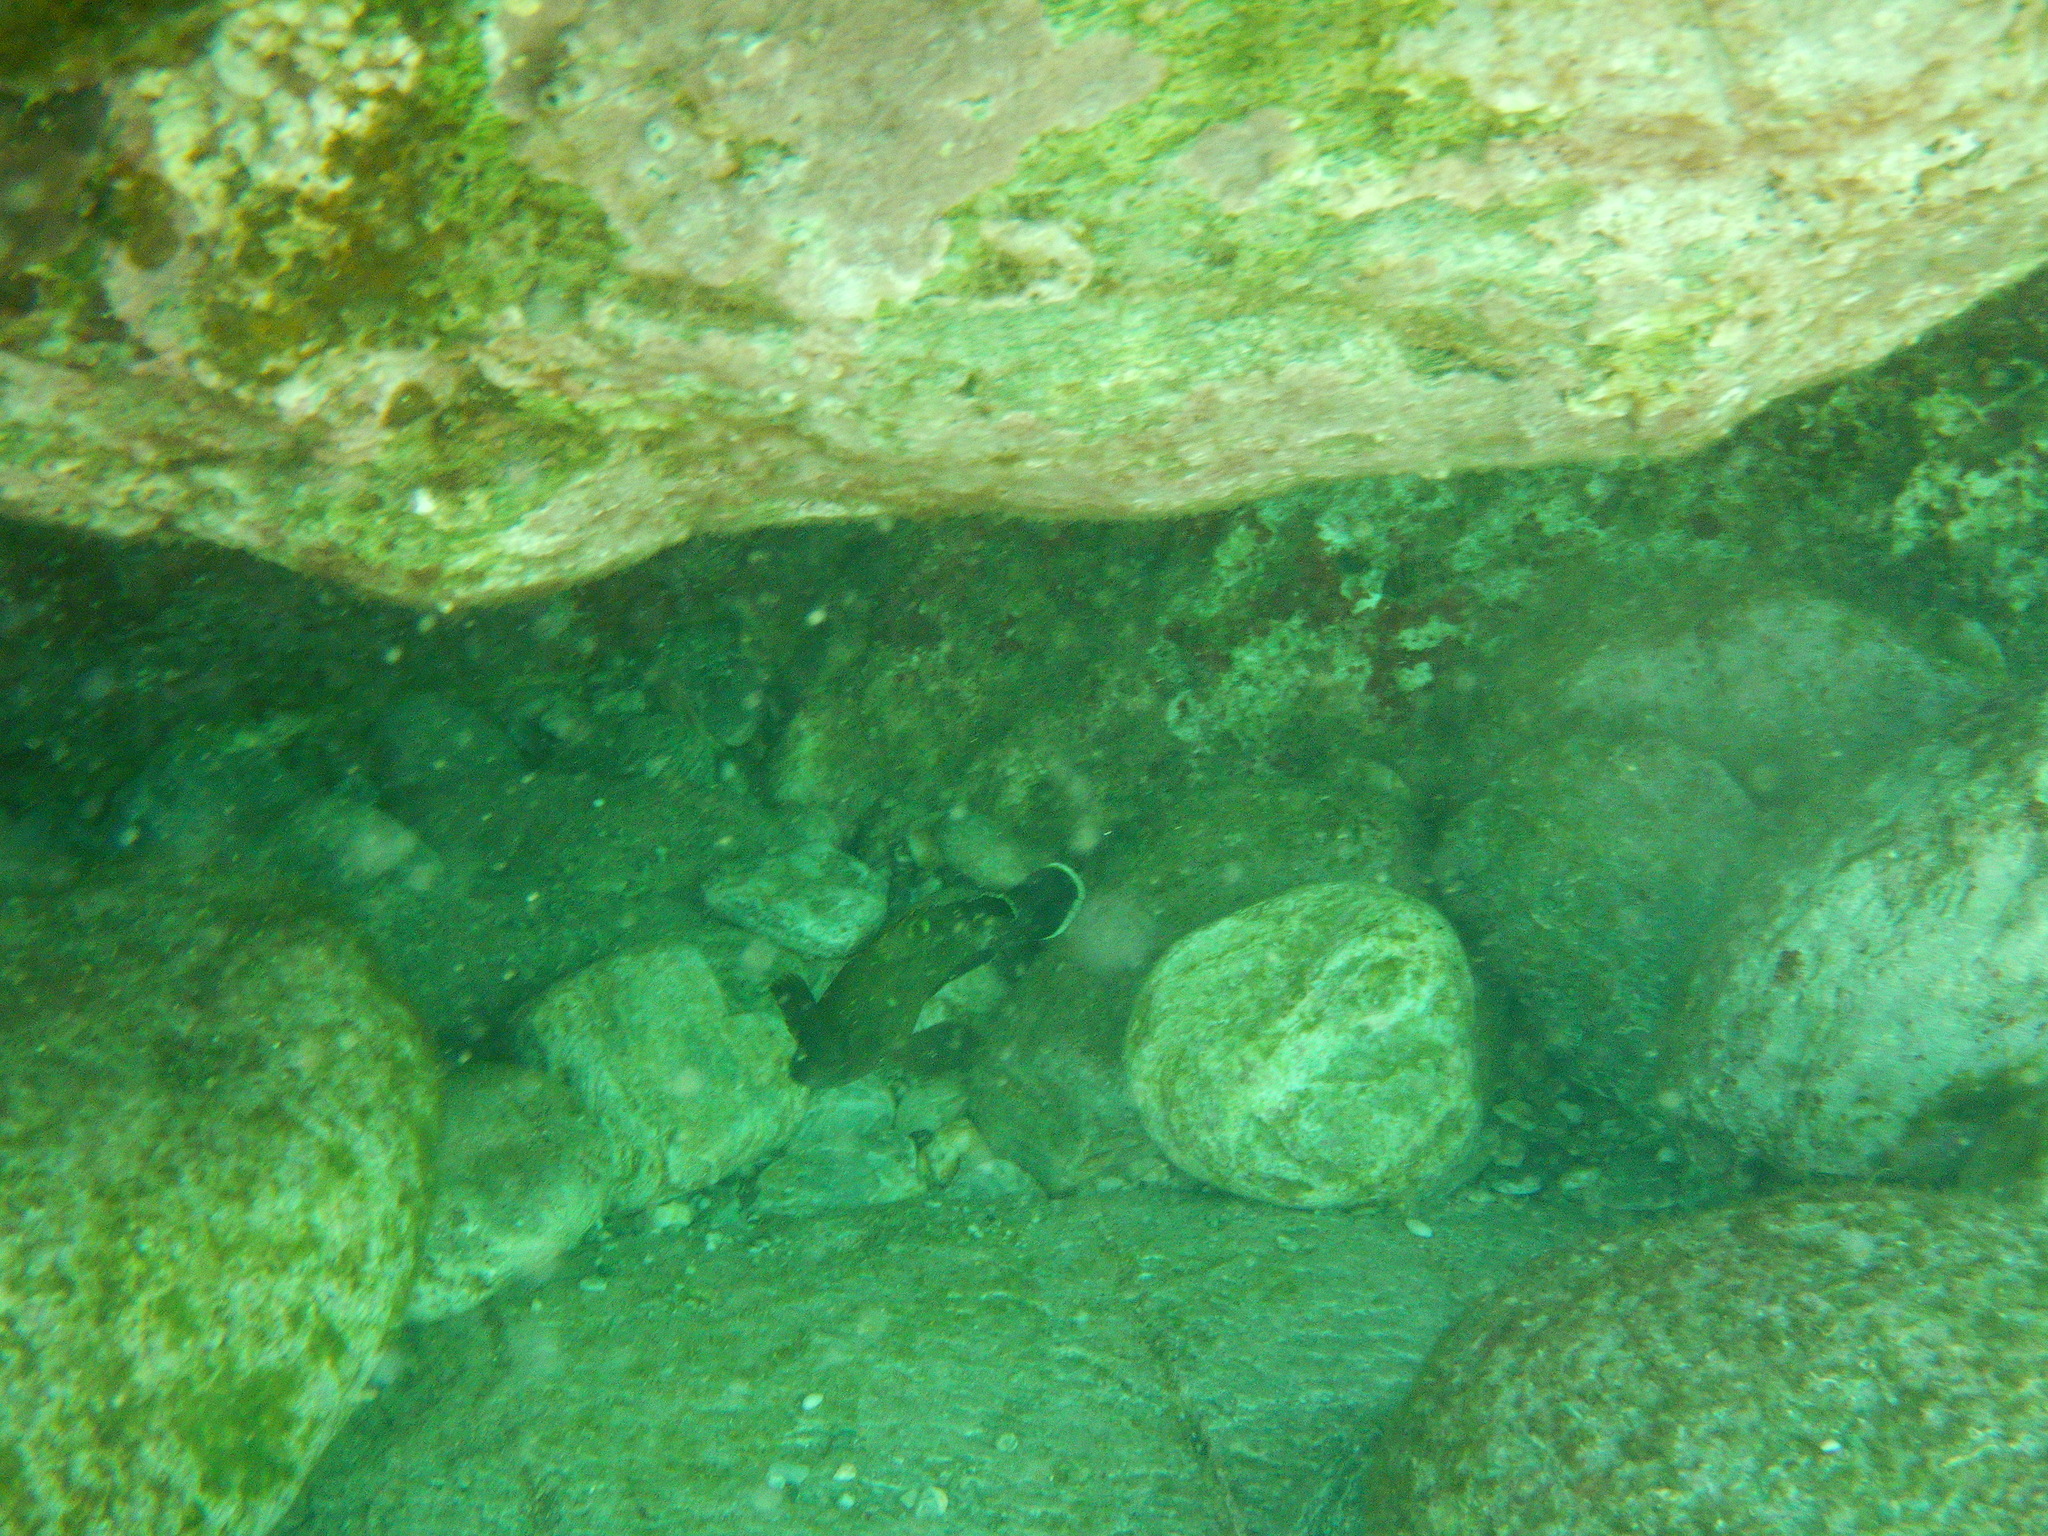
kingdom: Animalia
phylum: Chordata
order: Perciformes
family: Serranidae
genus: Epinephelus
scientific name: Epinephelus marginatus
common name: Dusky grouper
